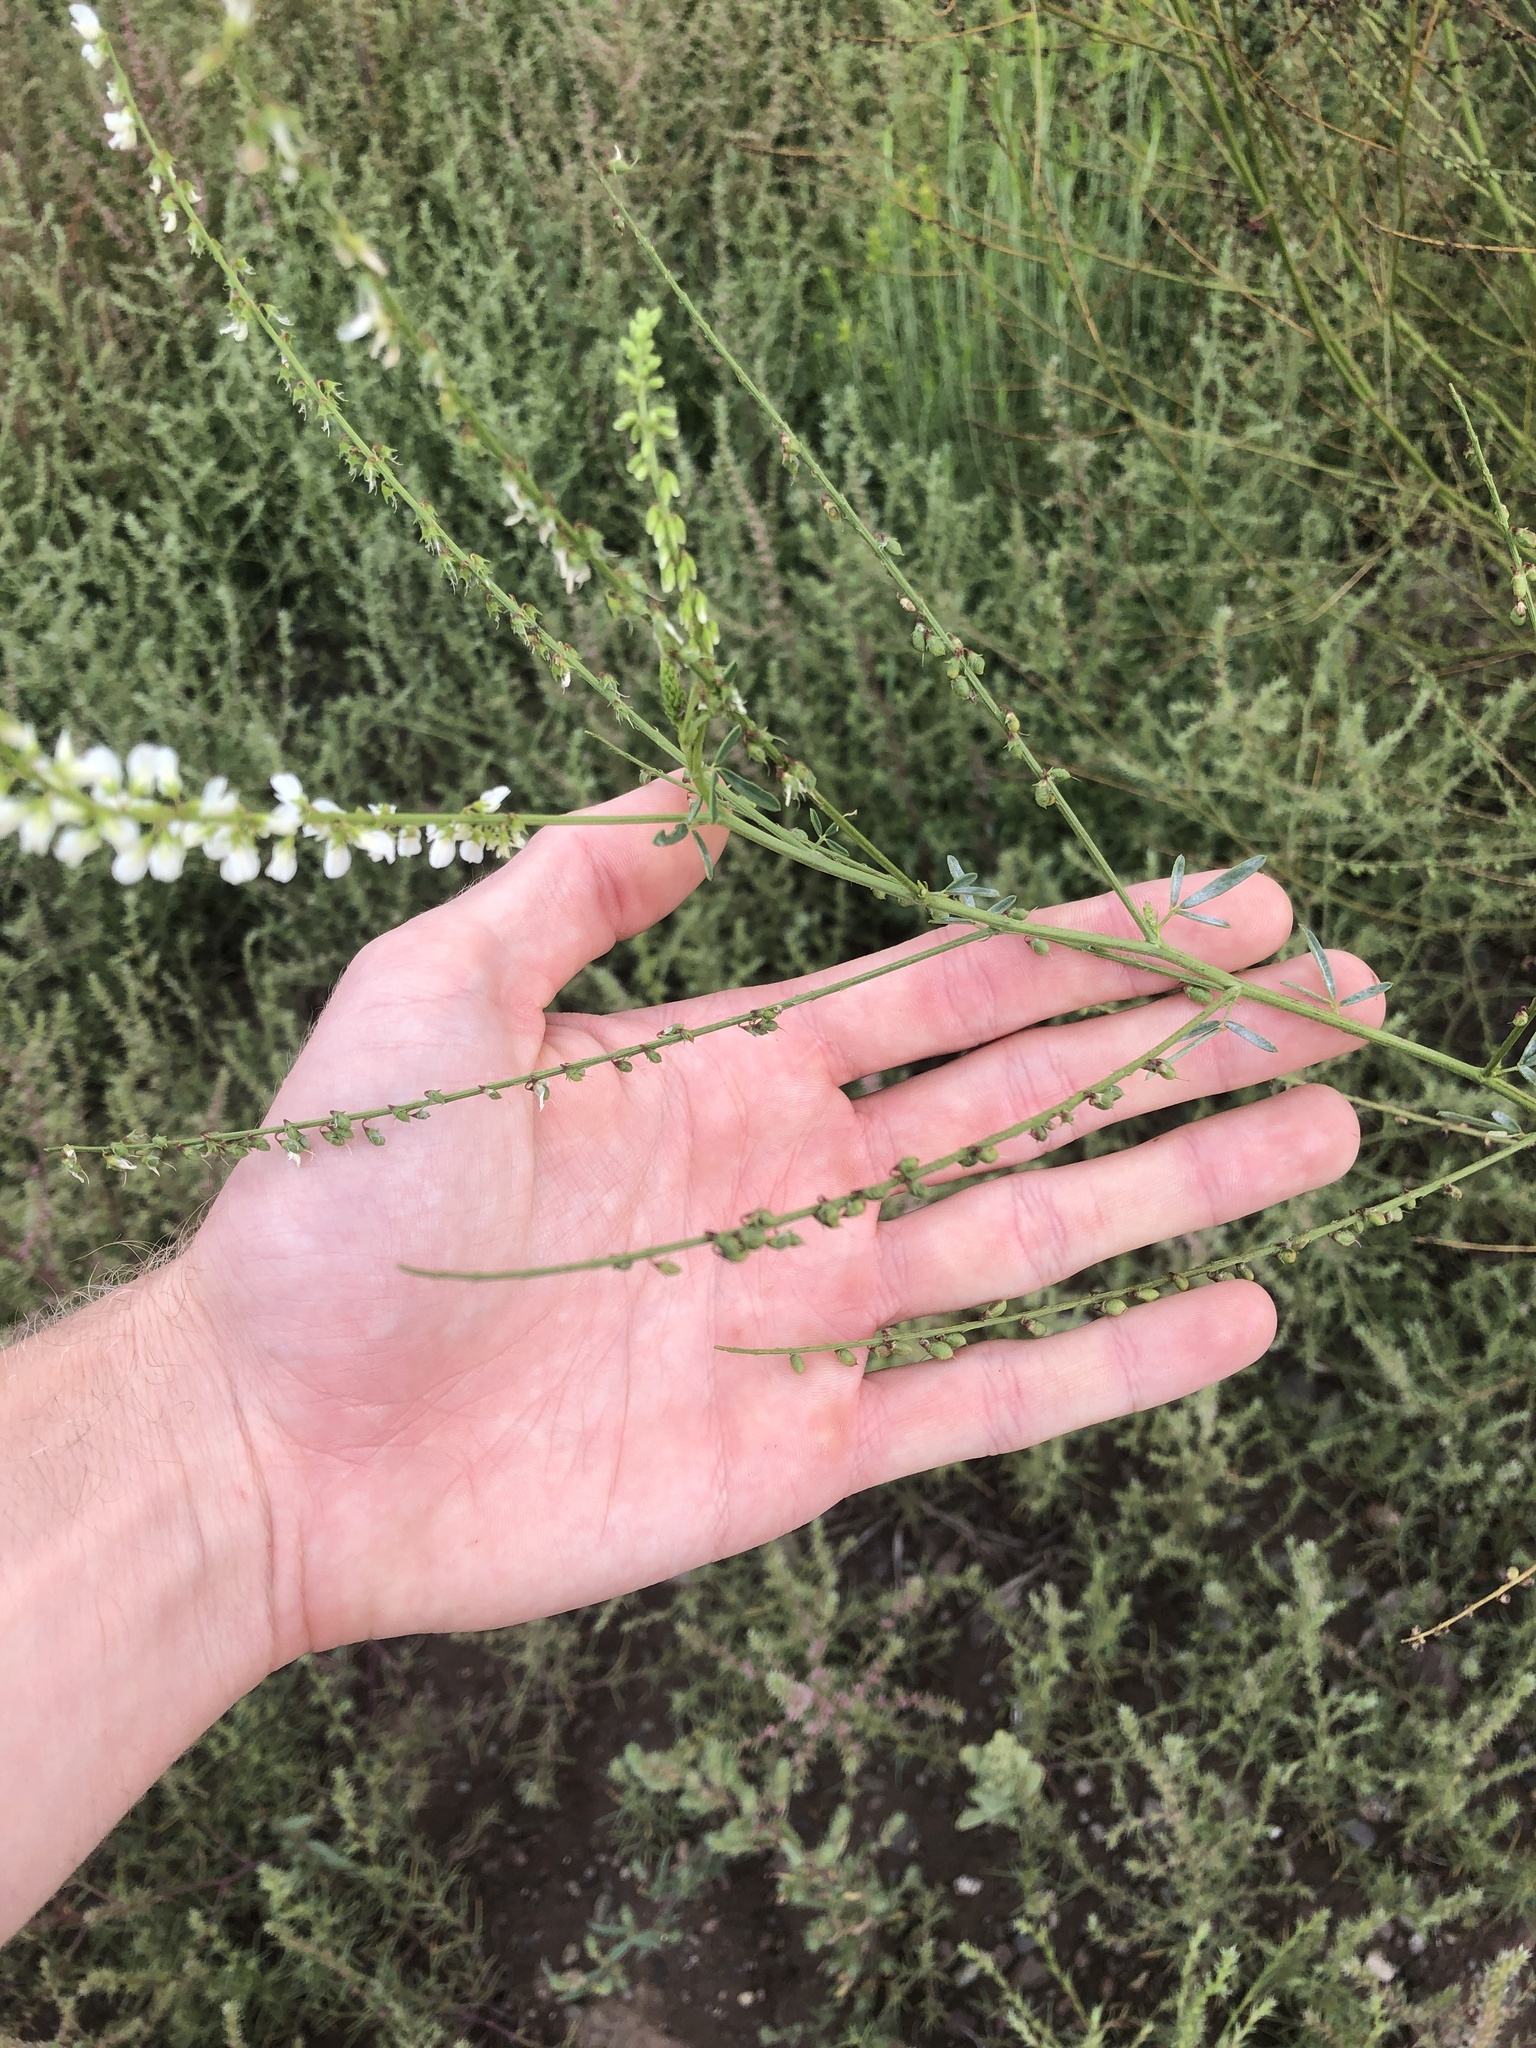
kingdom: Plantae
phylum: Tracheophyta
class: Magnoliopsida
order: Fabales
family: Fabaceae
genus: Melilotus
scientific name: Melilotus albus
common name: White melilot
